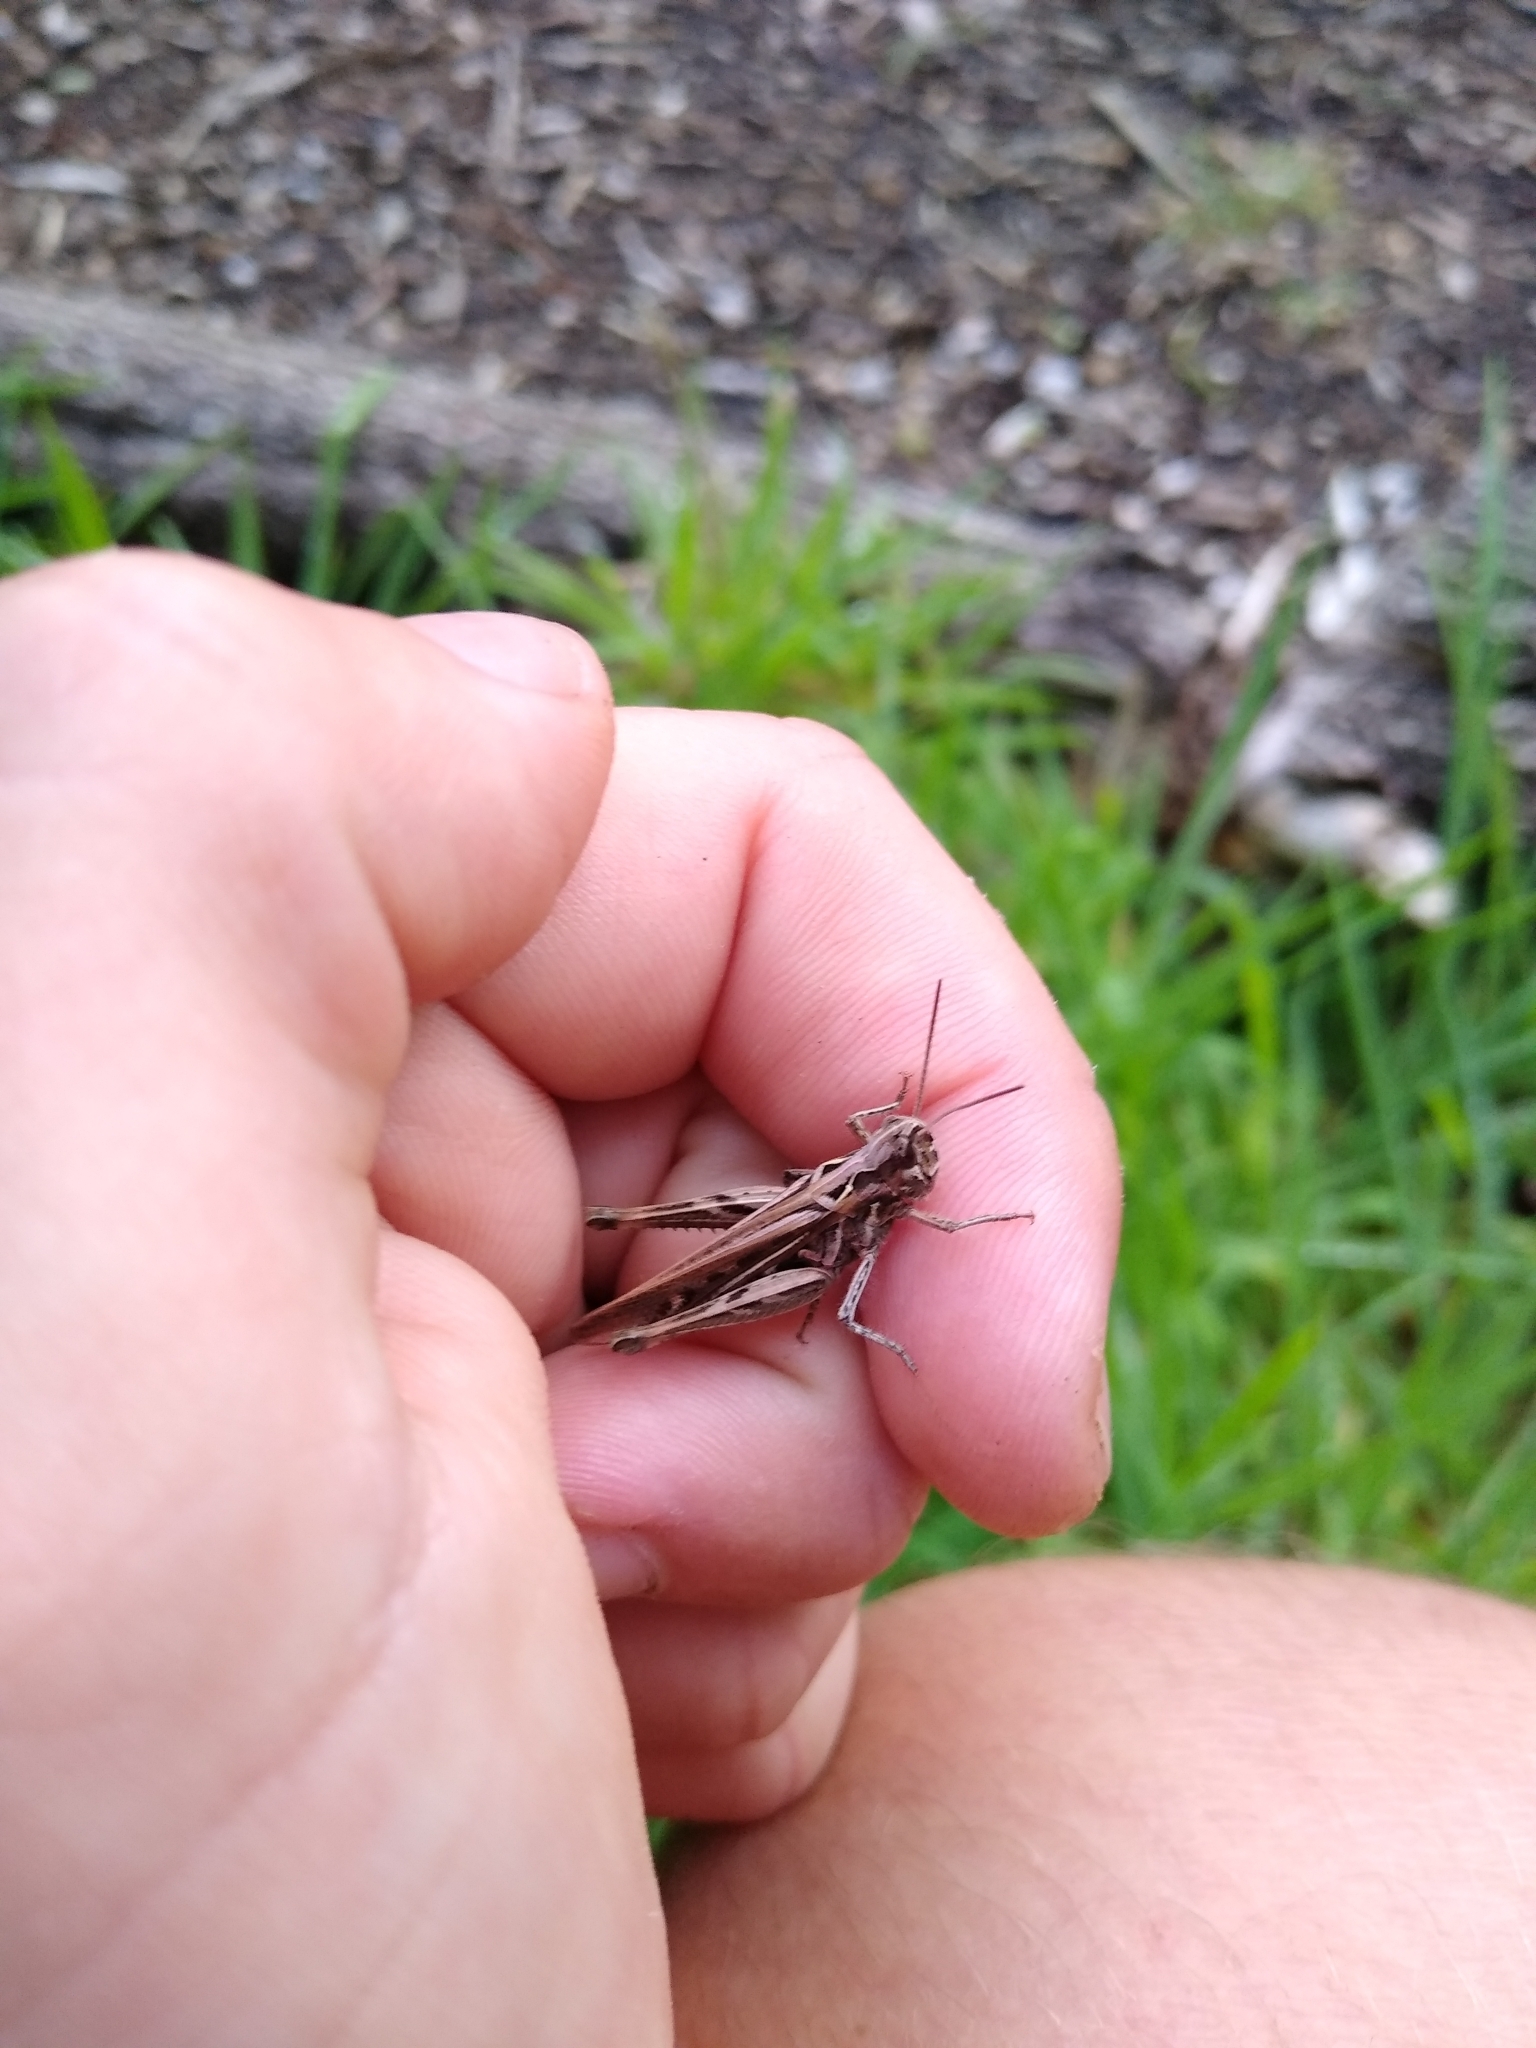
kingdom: Animalia
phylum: Arthropoda
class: Insecta
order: Orthoptera
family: Acrididae
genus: Chorthippus
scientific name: Chorthippus brunneus
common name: Field grasshopper
